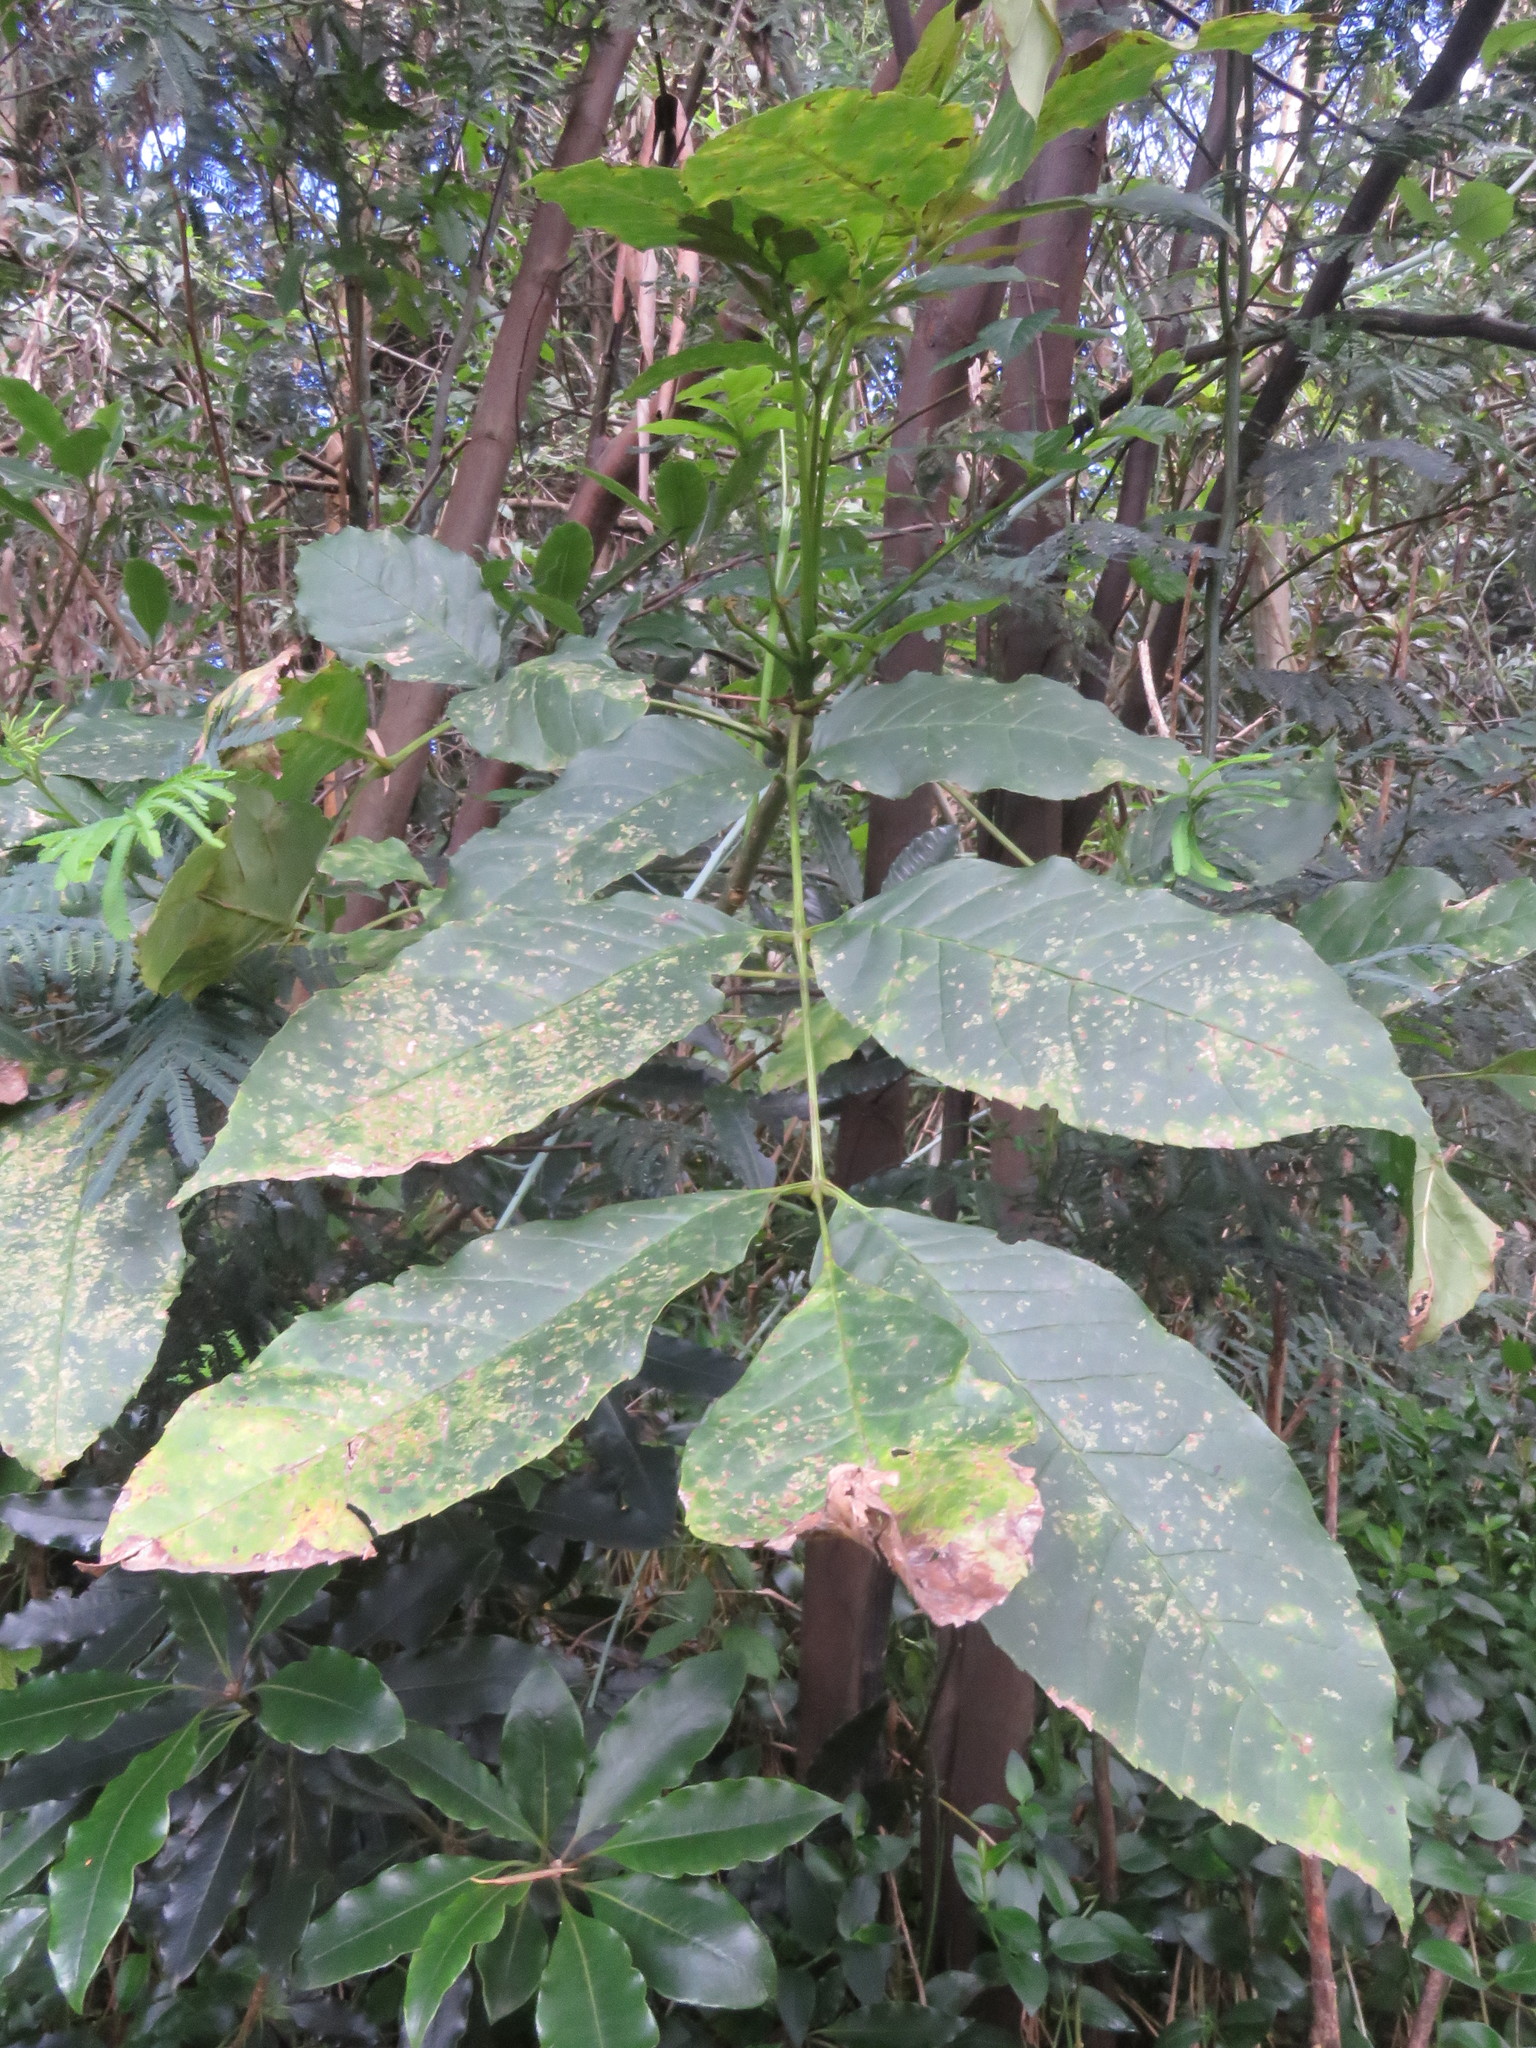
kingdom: Plantae
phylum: Tracheophyta
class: Magnoliopsida
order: Lamiales
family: Oleaceae
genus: Fraxinus
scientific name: Fraxinus uhdei
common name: Shamel ash
